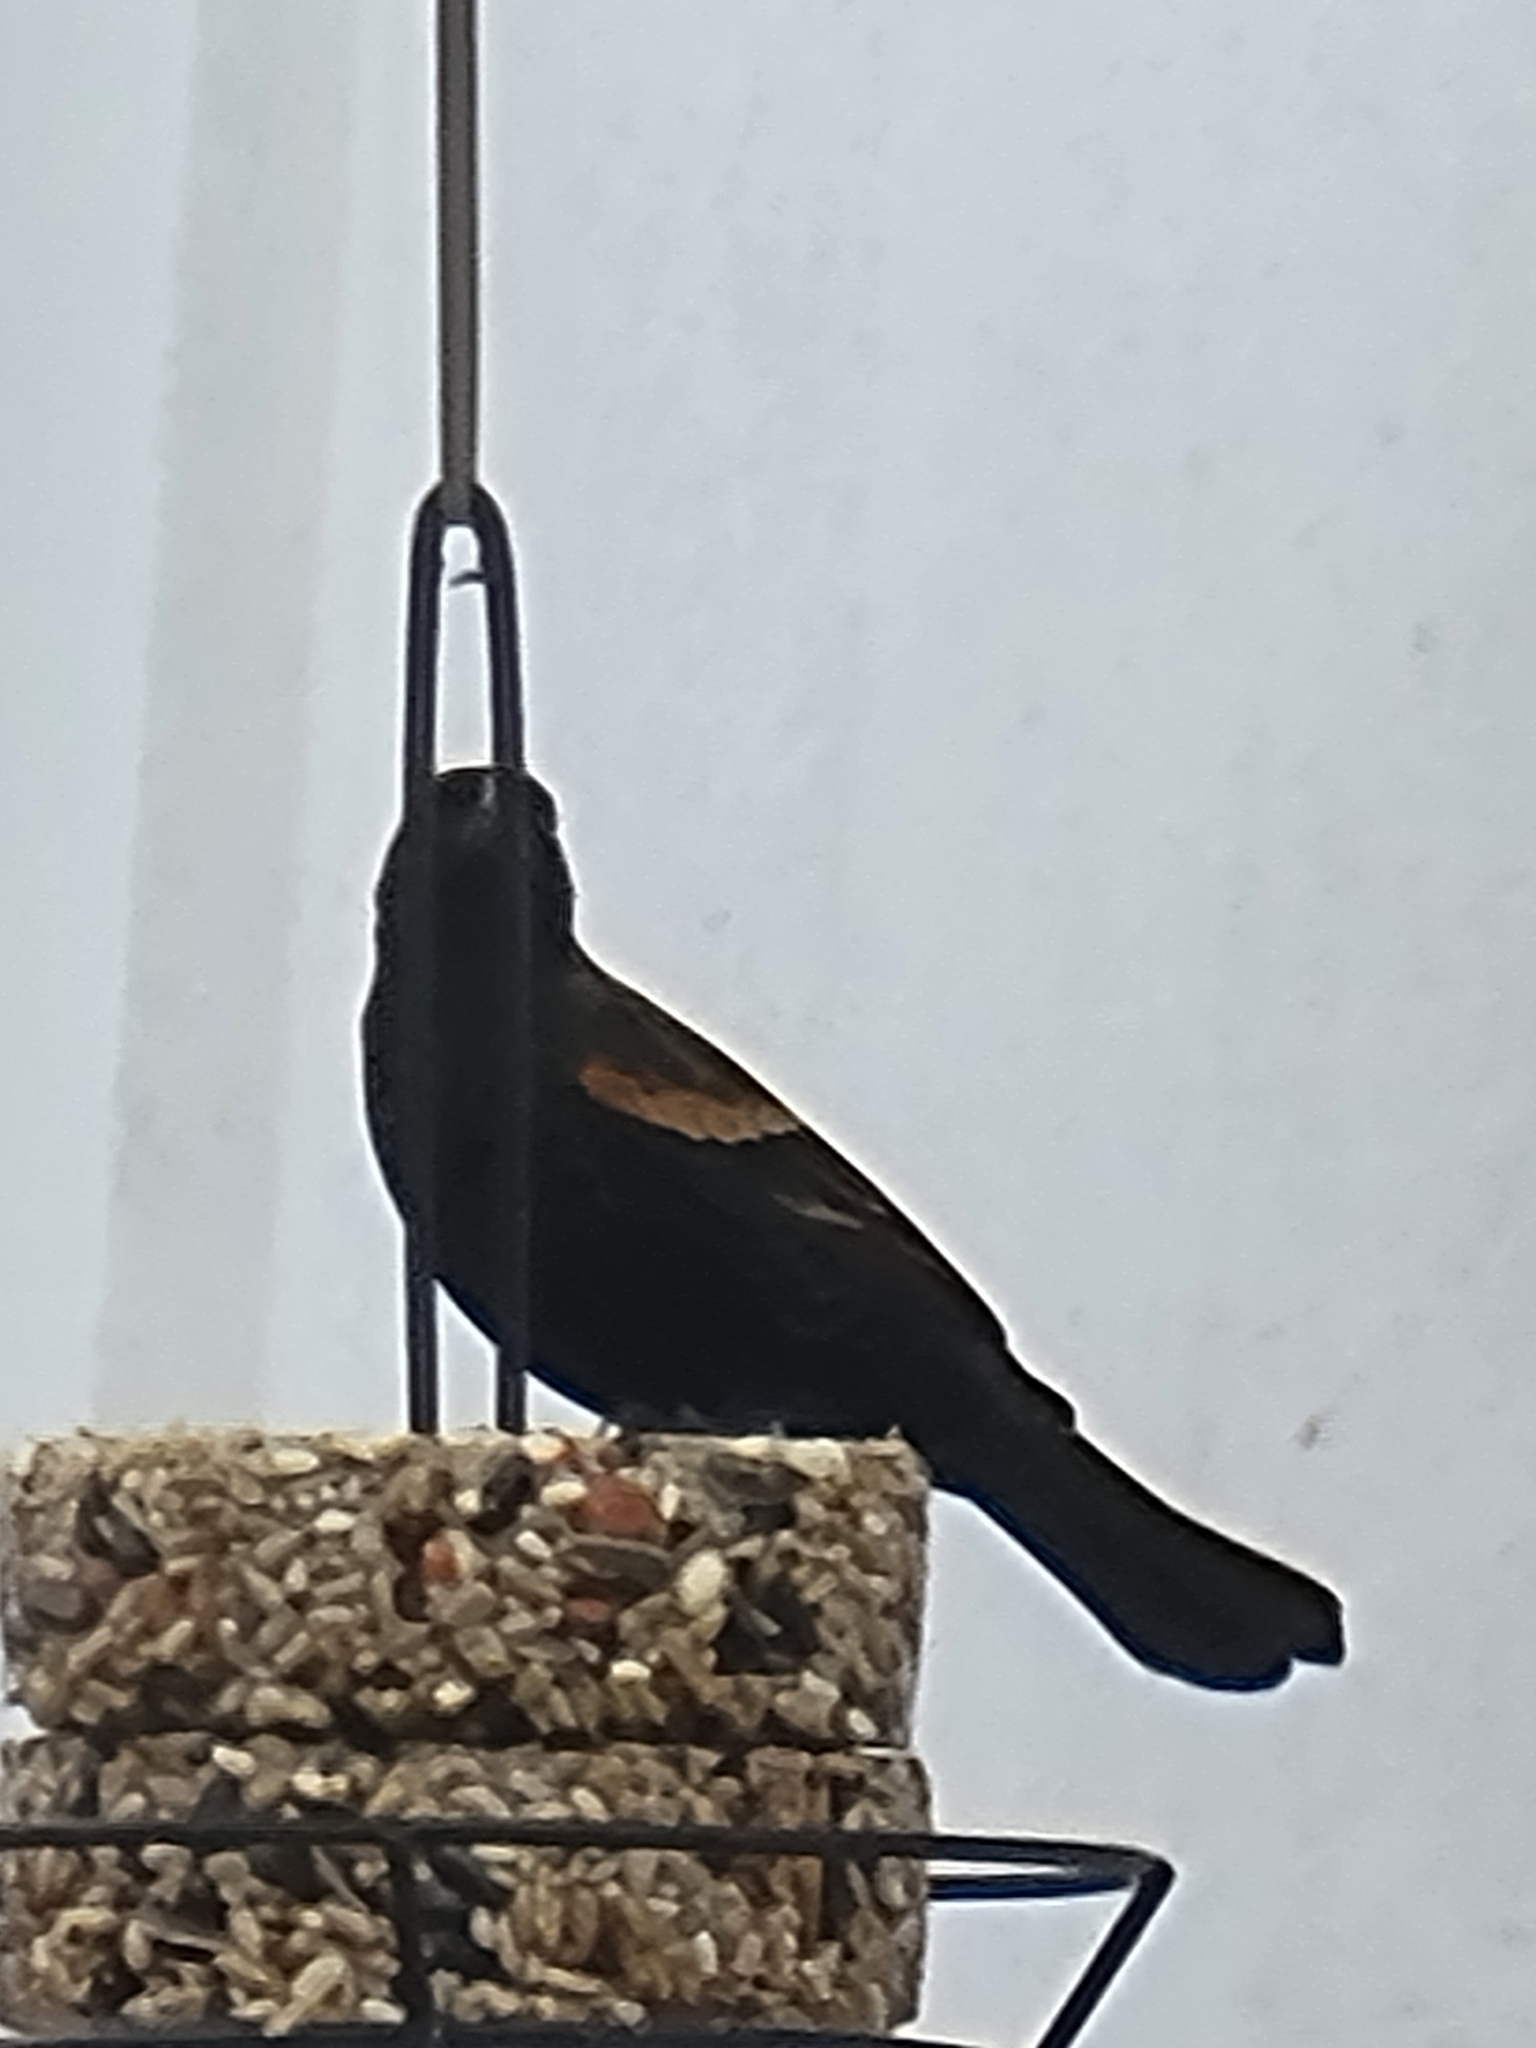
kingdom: Animalia
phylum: Chordata
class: Aves
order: Passeriformes
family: Icteridae
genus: Agelaius
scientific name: Agelaius phoeniceus
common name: Red-winged blackbird
